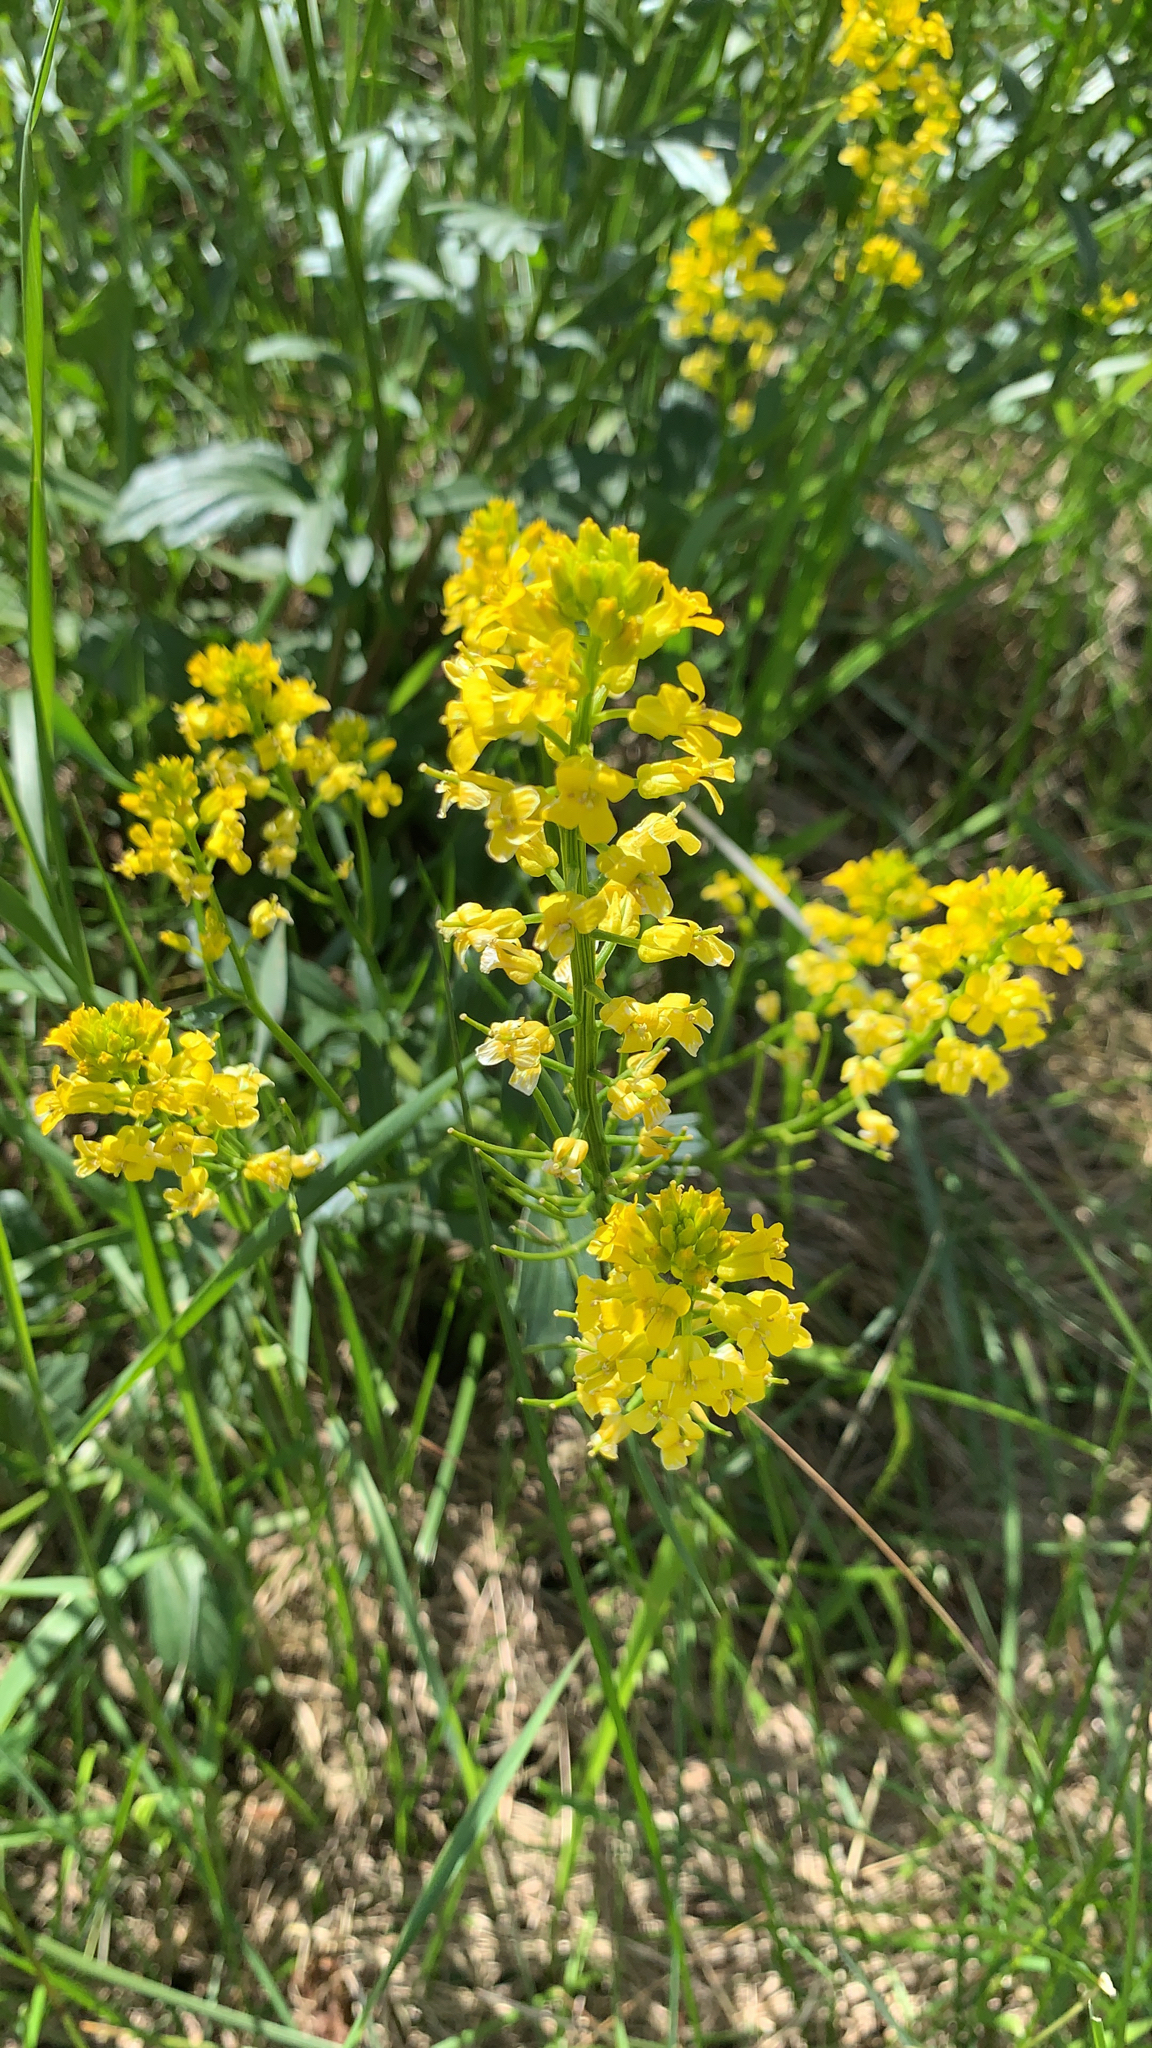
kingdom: Plantae
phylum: Tracheophyta
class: Magnoliopsida
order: Brassicales
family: Brassicaceae
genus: Barbarea
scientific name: Barbarea vulgaris
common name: Cressy-greens
